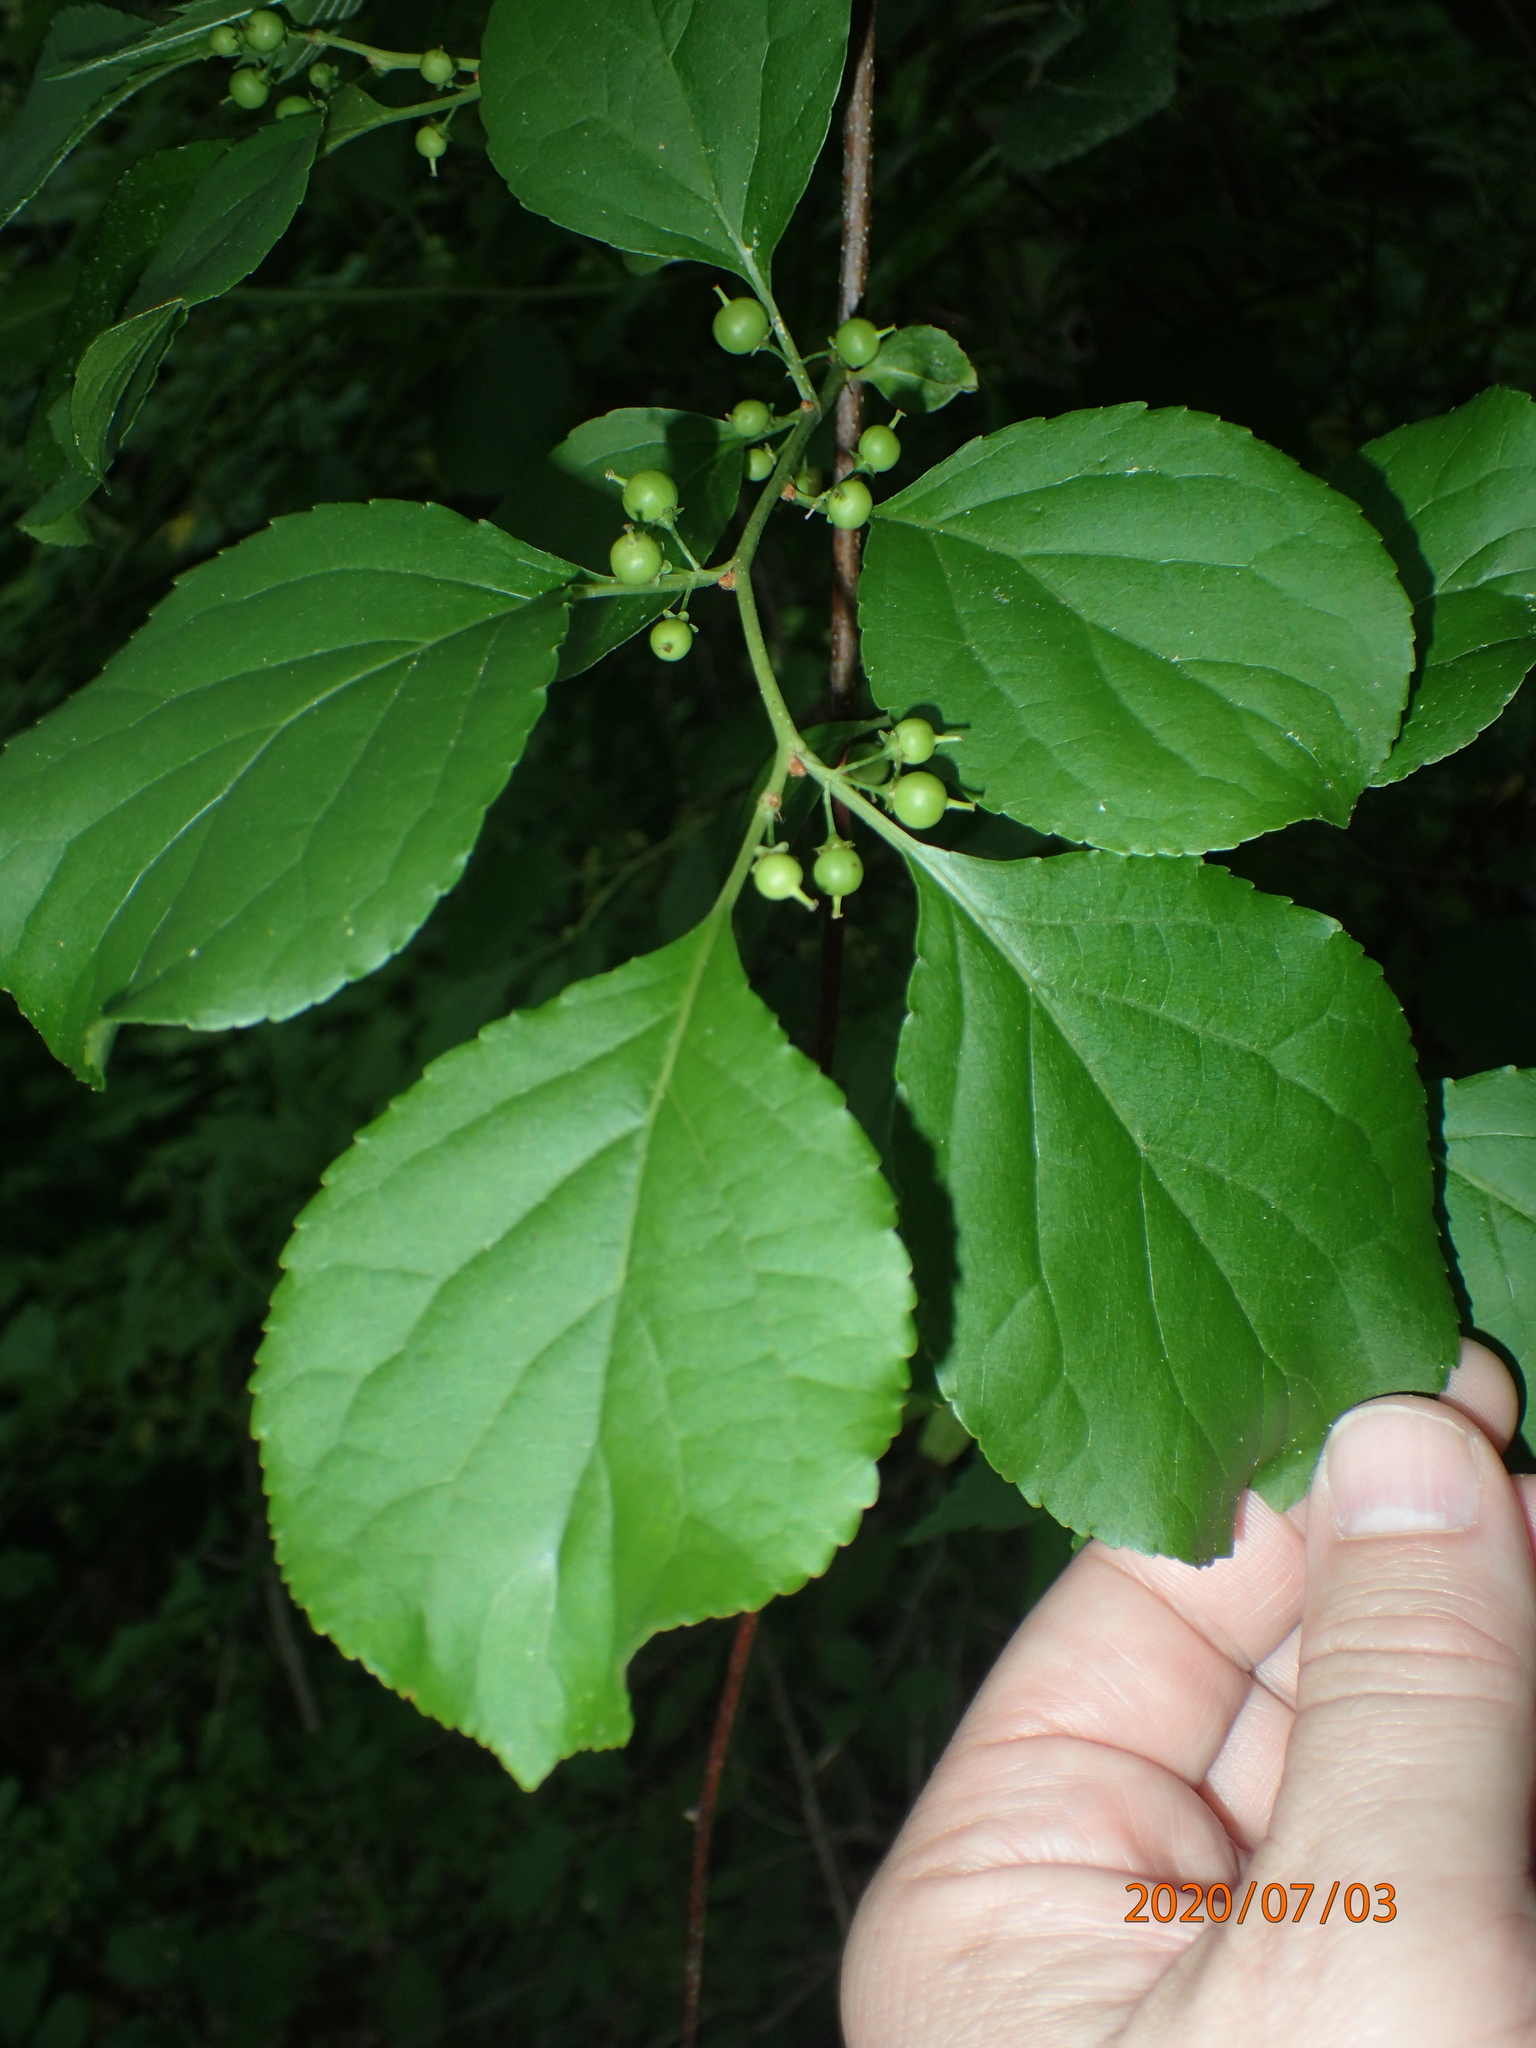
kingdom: Plantae
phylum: Tracheophyta
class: Magnoliopsida
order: Celastrales
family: Celastraceae
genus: Celastrus
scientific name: Celastrus orbiculatus
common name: Oriental bittersweet
